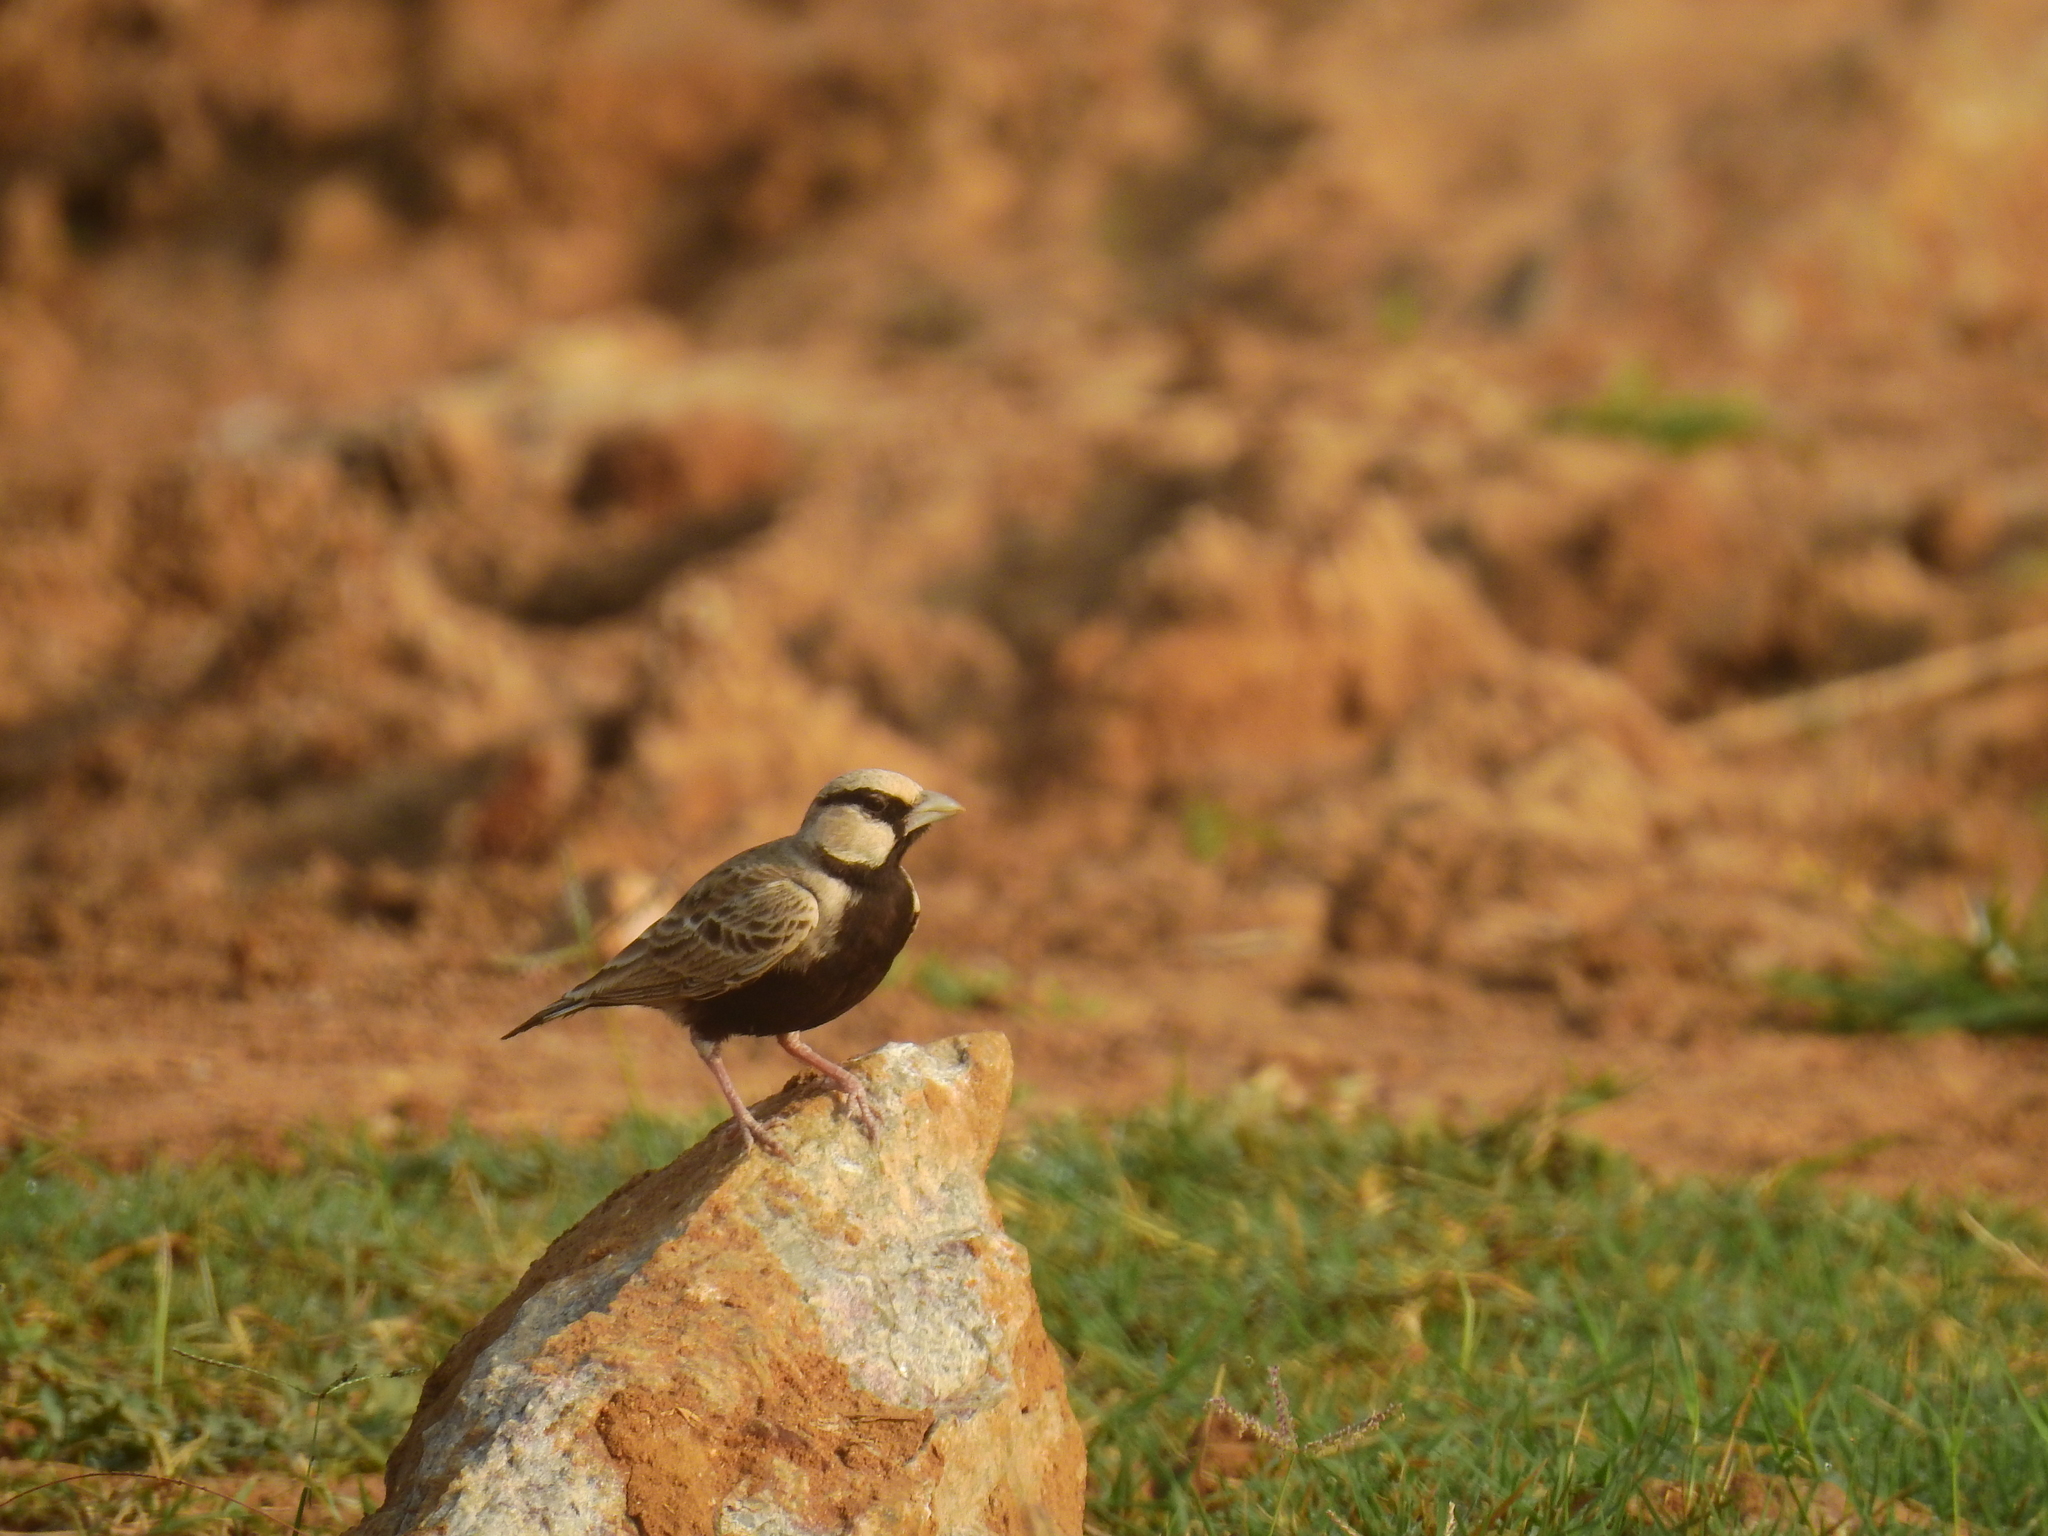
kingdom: Animalia
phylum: Chordata
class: Aves
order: Passeriformes
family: Alaudidae
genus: Eremopterix
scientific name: Eremopterix griseus
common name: Ashy-crowned sparrow-lark
